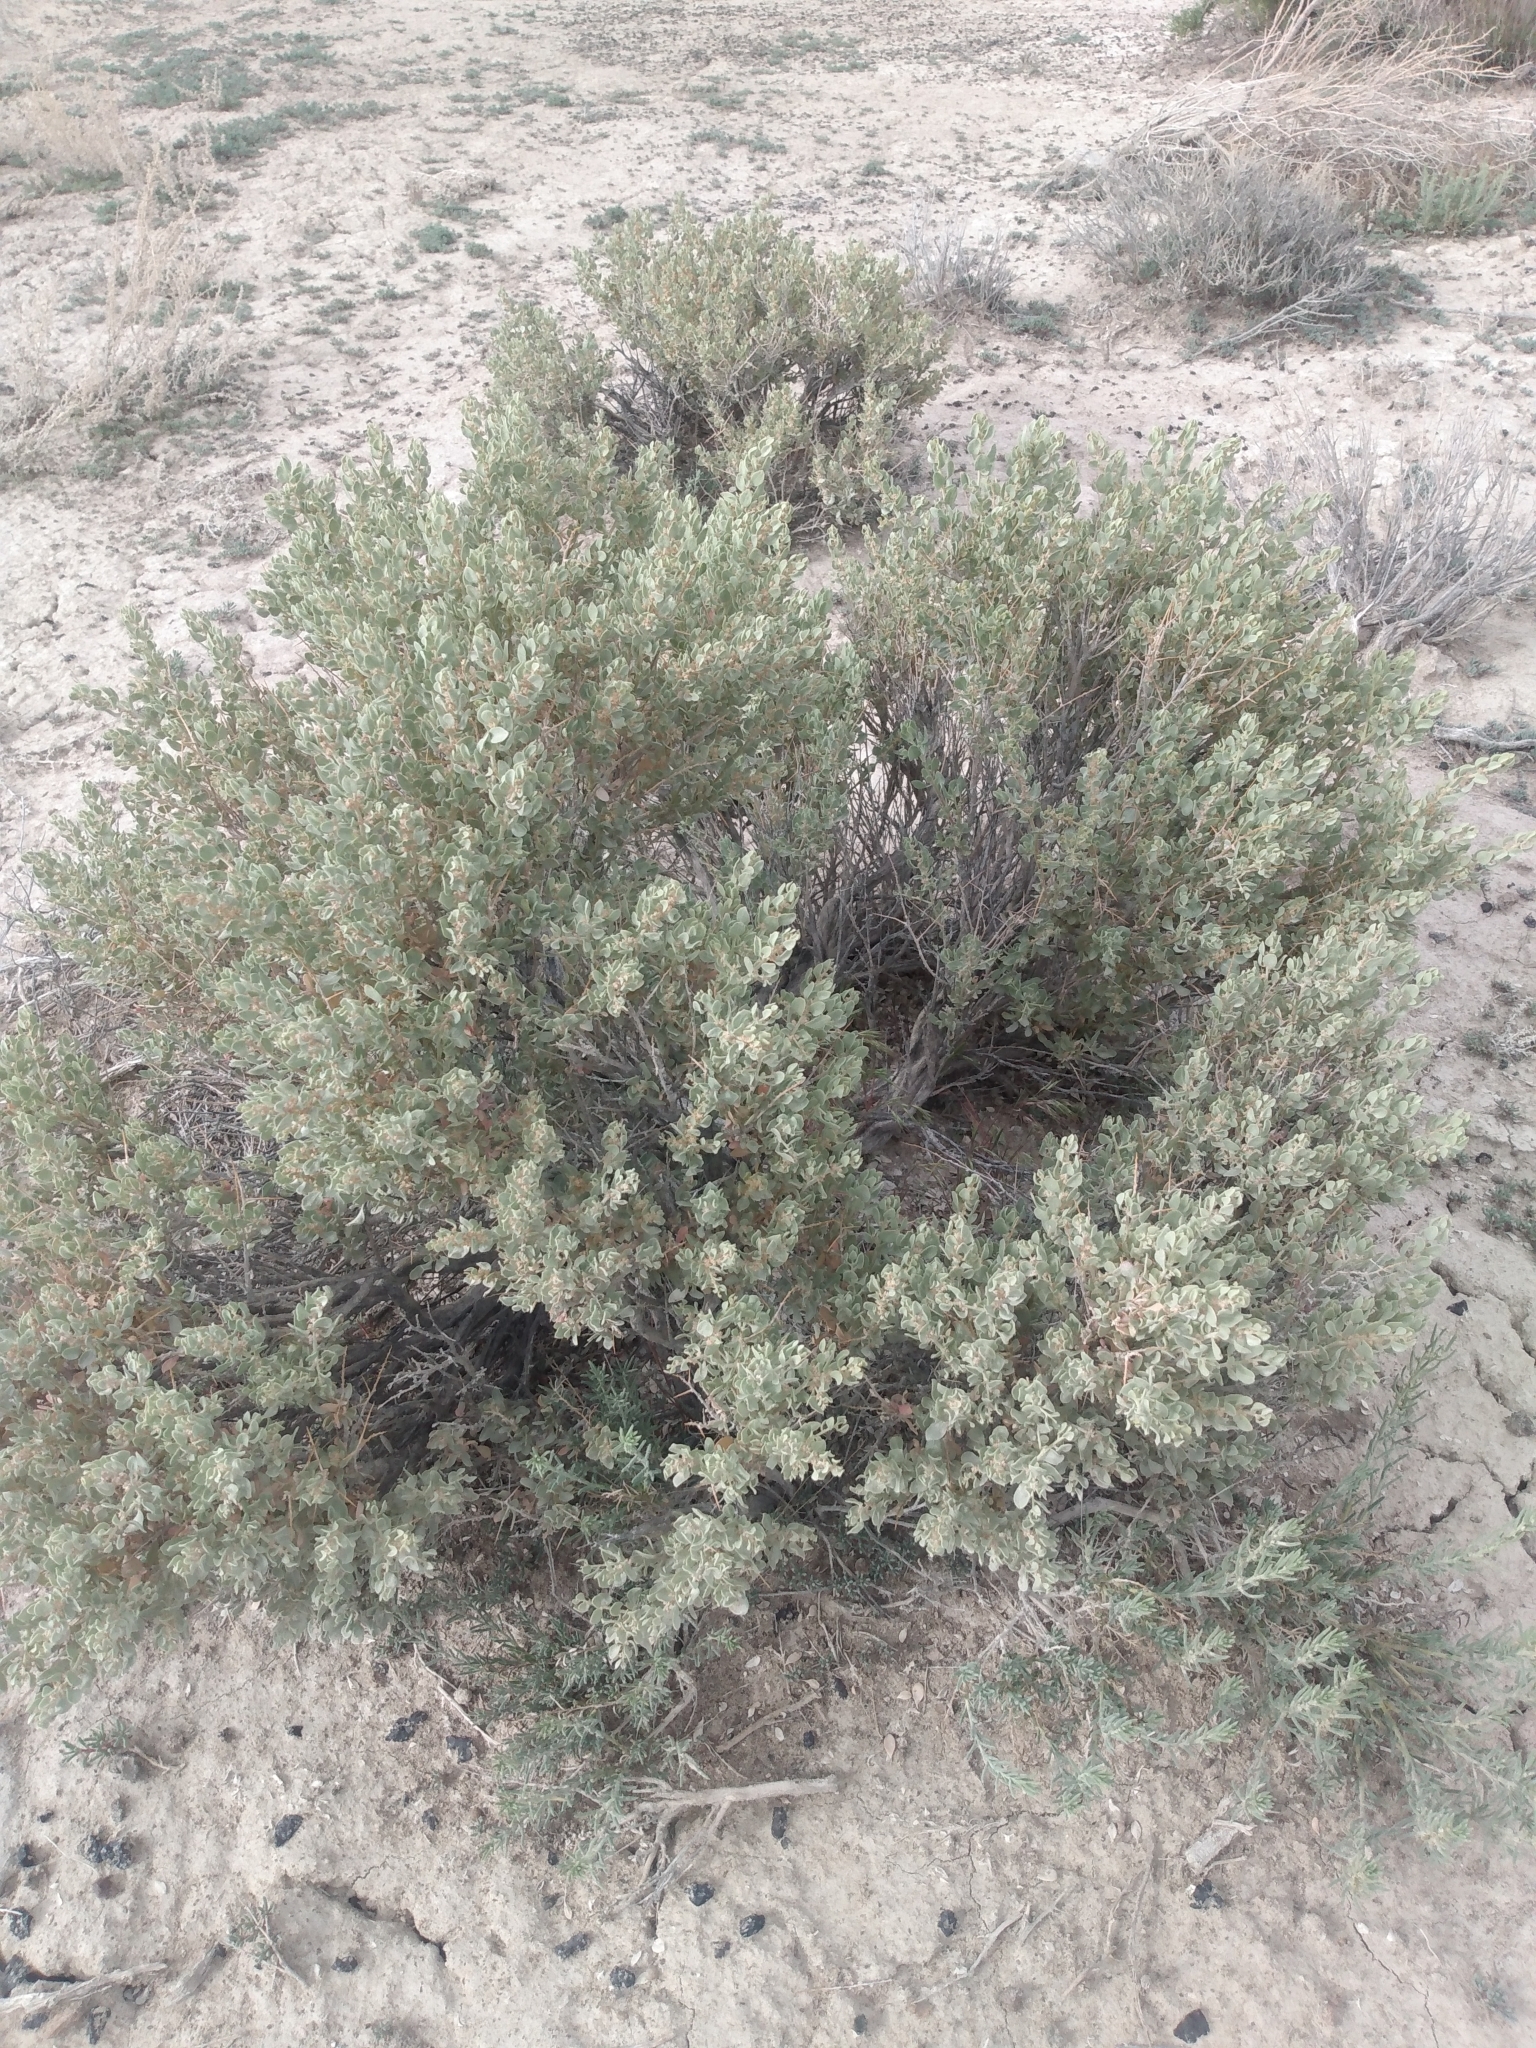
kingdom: Plantae
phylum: Tracheophyta
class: Magnoliopsida
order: Caryophyllales
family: Amaranthaceae
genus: Atriplex
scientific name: Atriplex confertifolia
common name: Shadscale
